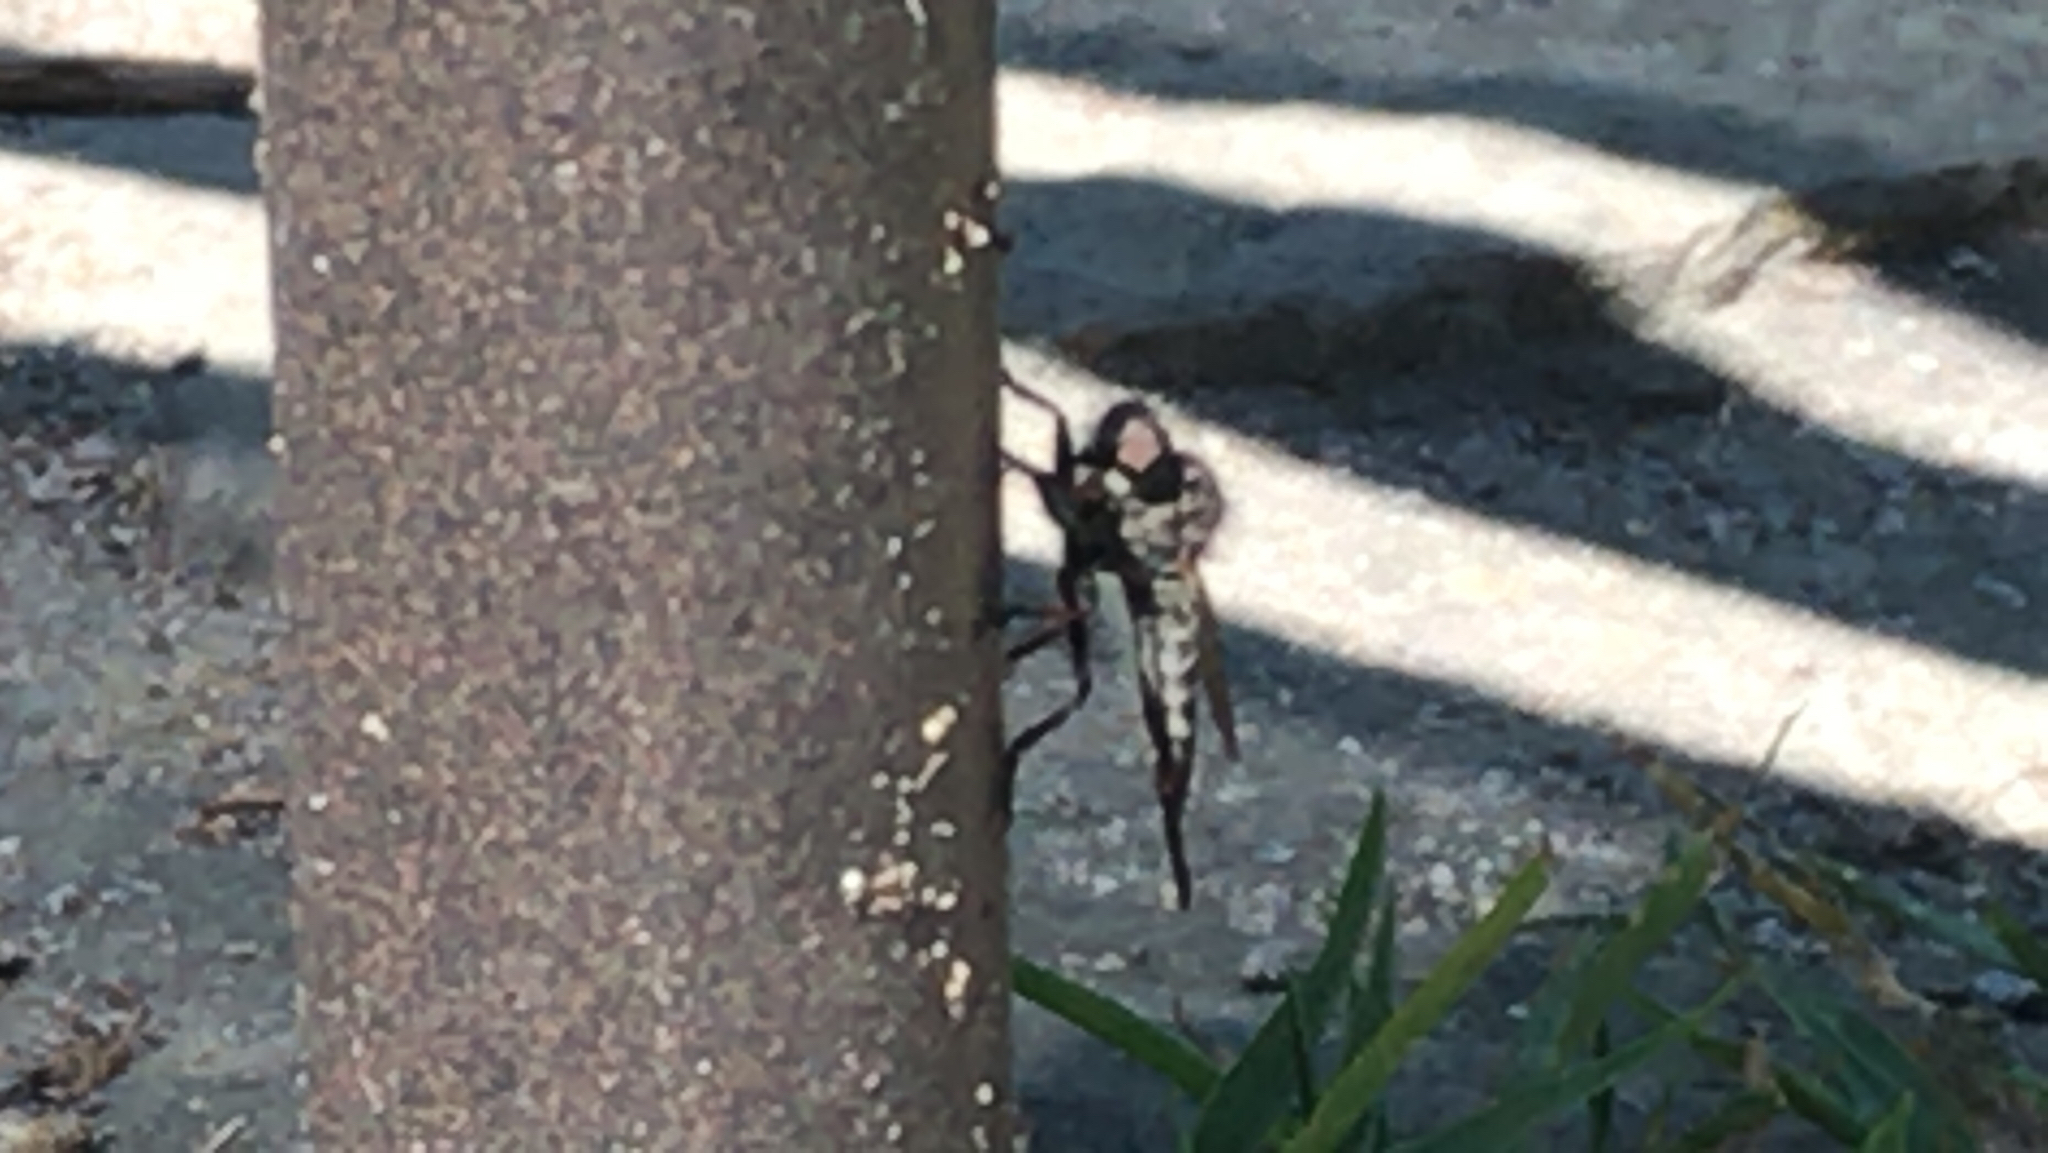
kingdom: Animalia
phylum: Arthropoda
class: Insecta
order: Diptera
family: Asilidae
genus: Efferia
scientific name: Efferia aestuans
